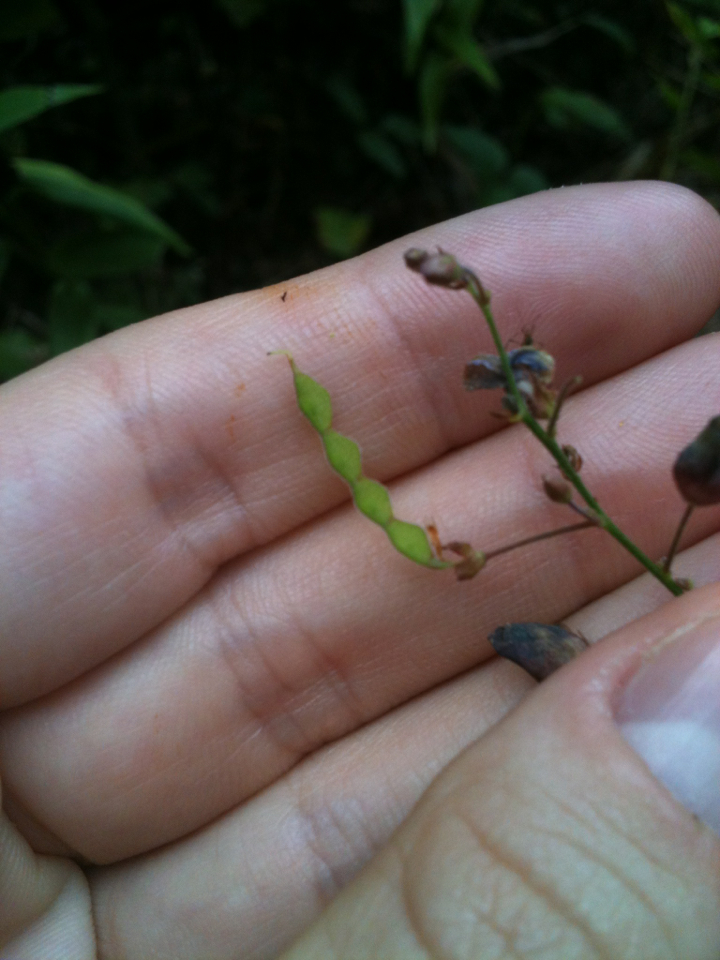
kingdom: Plantae
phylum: Tracheophyta
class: Magnoliopsida
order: Fabales
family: Fabaceae
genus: Desmodium
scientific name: Desmodium paniculatum
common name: Panicled tick-clover
